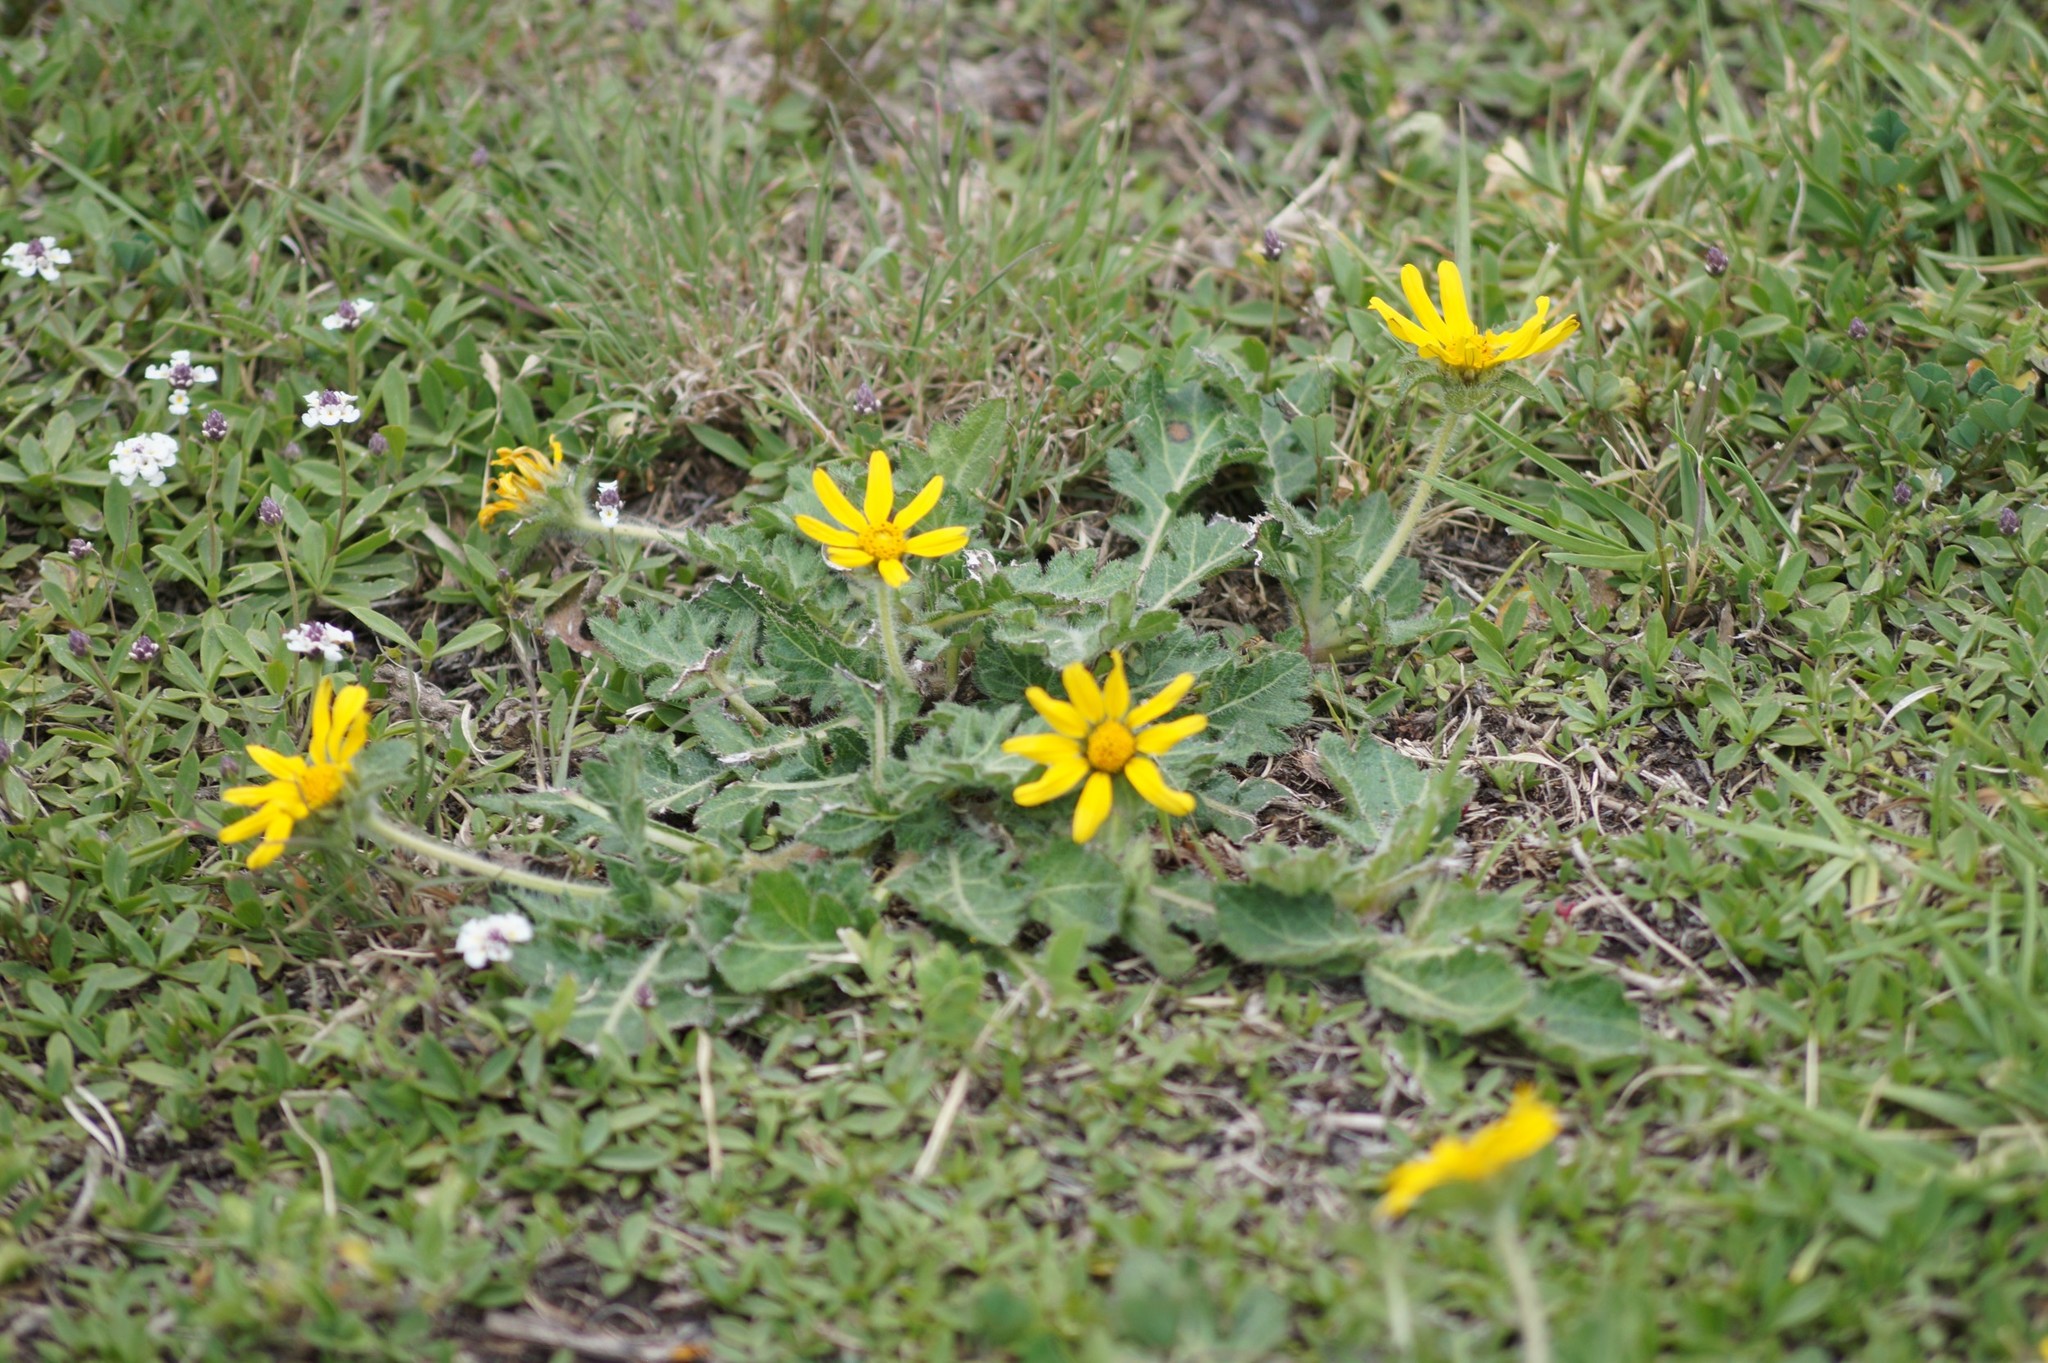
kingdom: Plantae
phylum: Tracheophyta
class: Magnoliopsida
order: Asterales
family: Asteraceae
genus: Dugesia
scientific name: Dugesia mexicana
